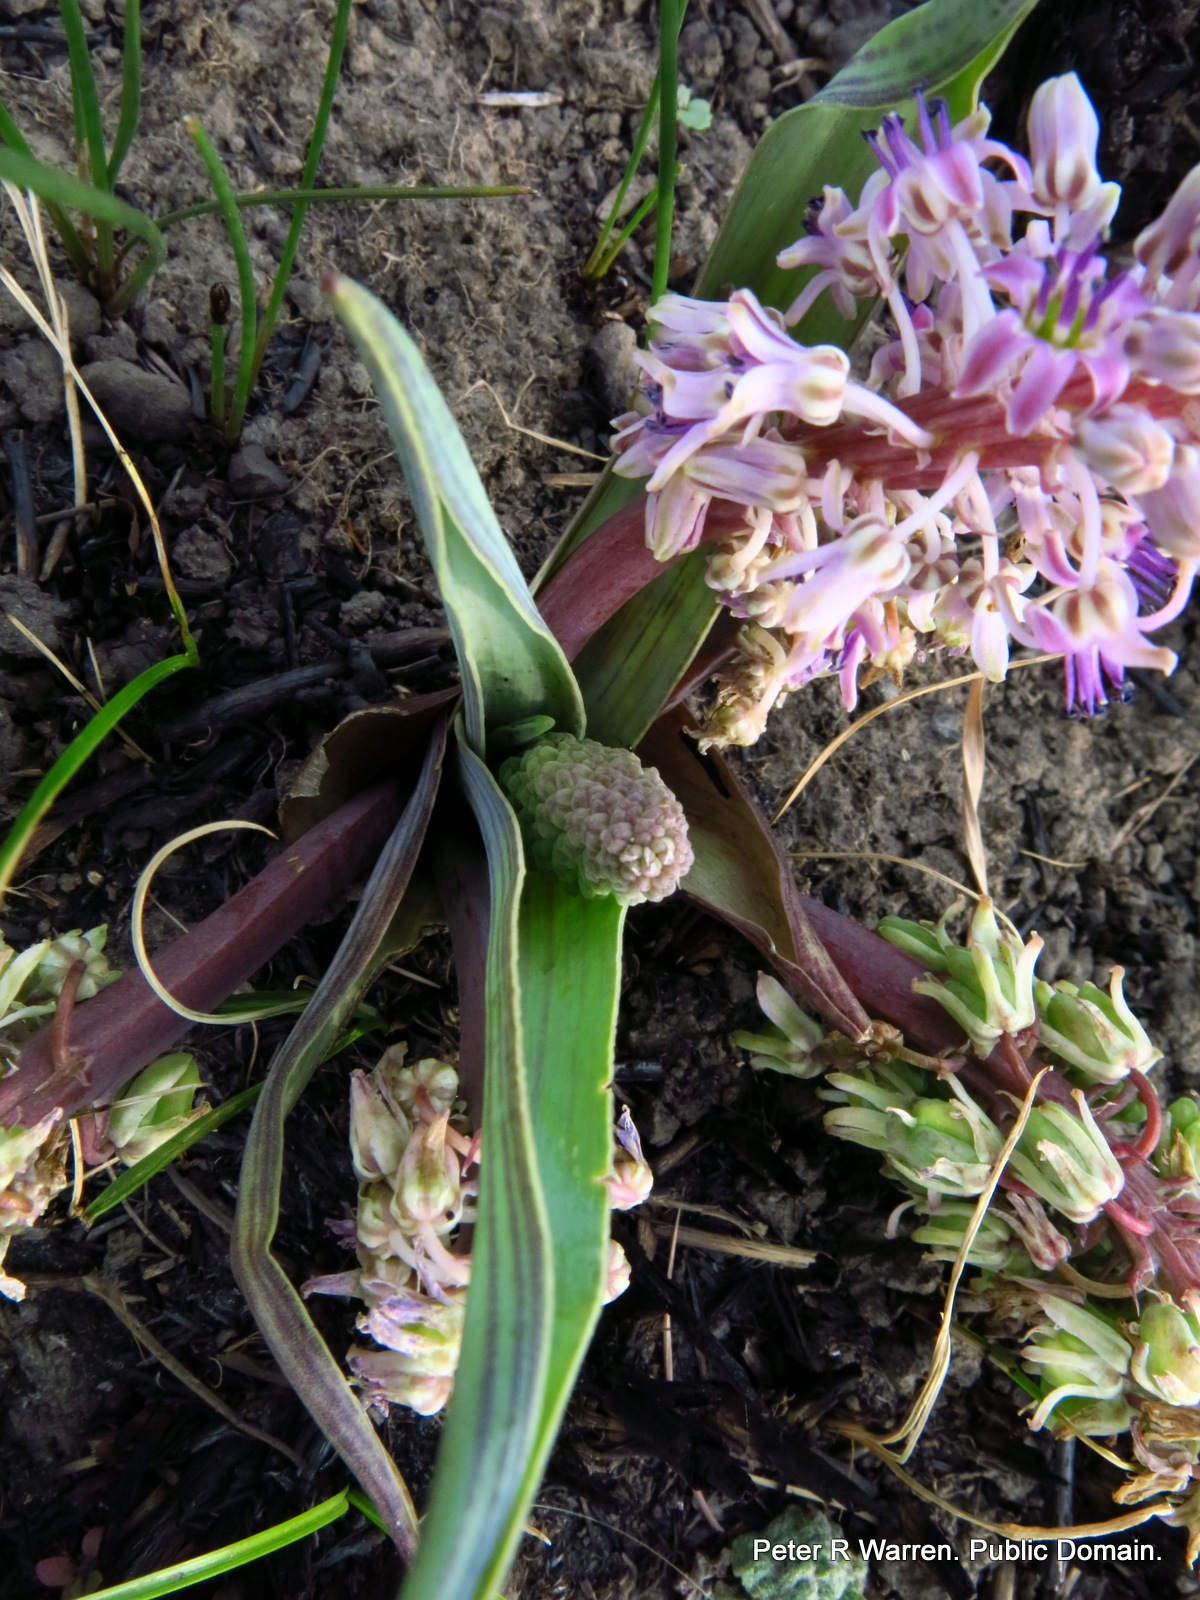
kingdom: Plantae
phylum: Tracheophyta
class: Liliopsida
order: Asparagales
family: Asparagaceae
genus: Ledebouria
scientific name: Ledebouria cooperi
